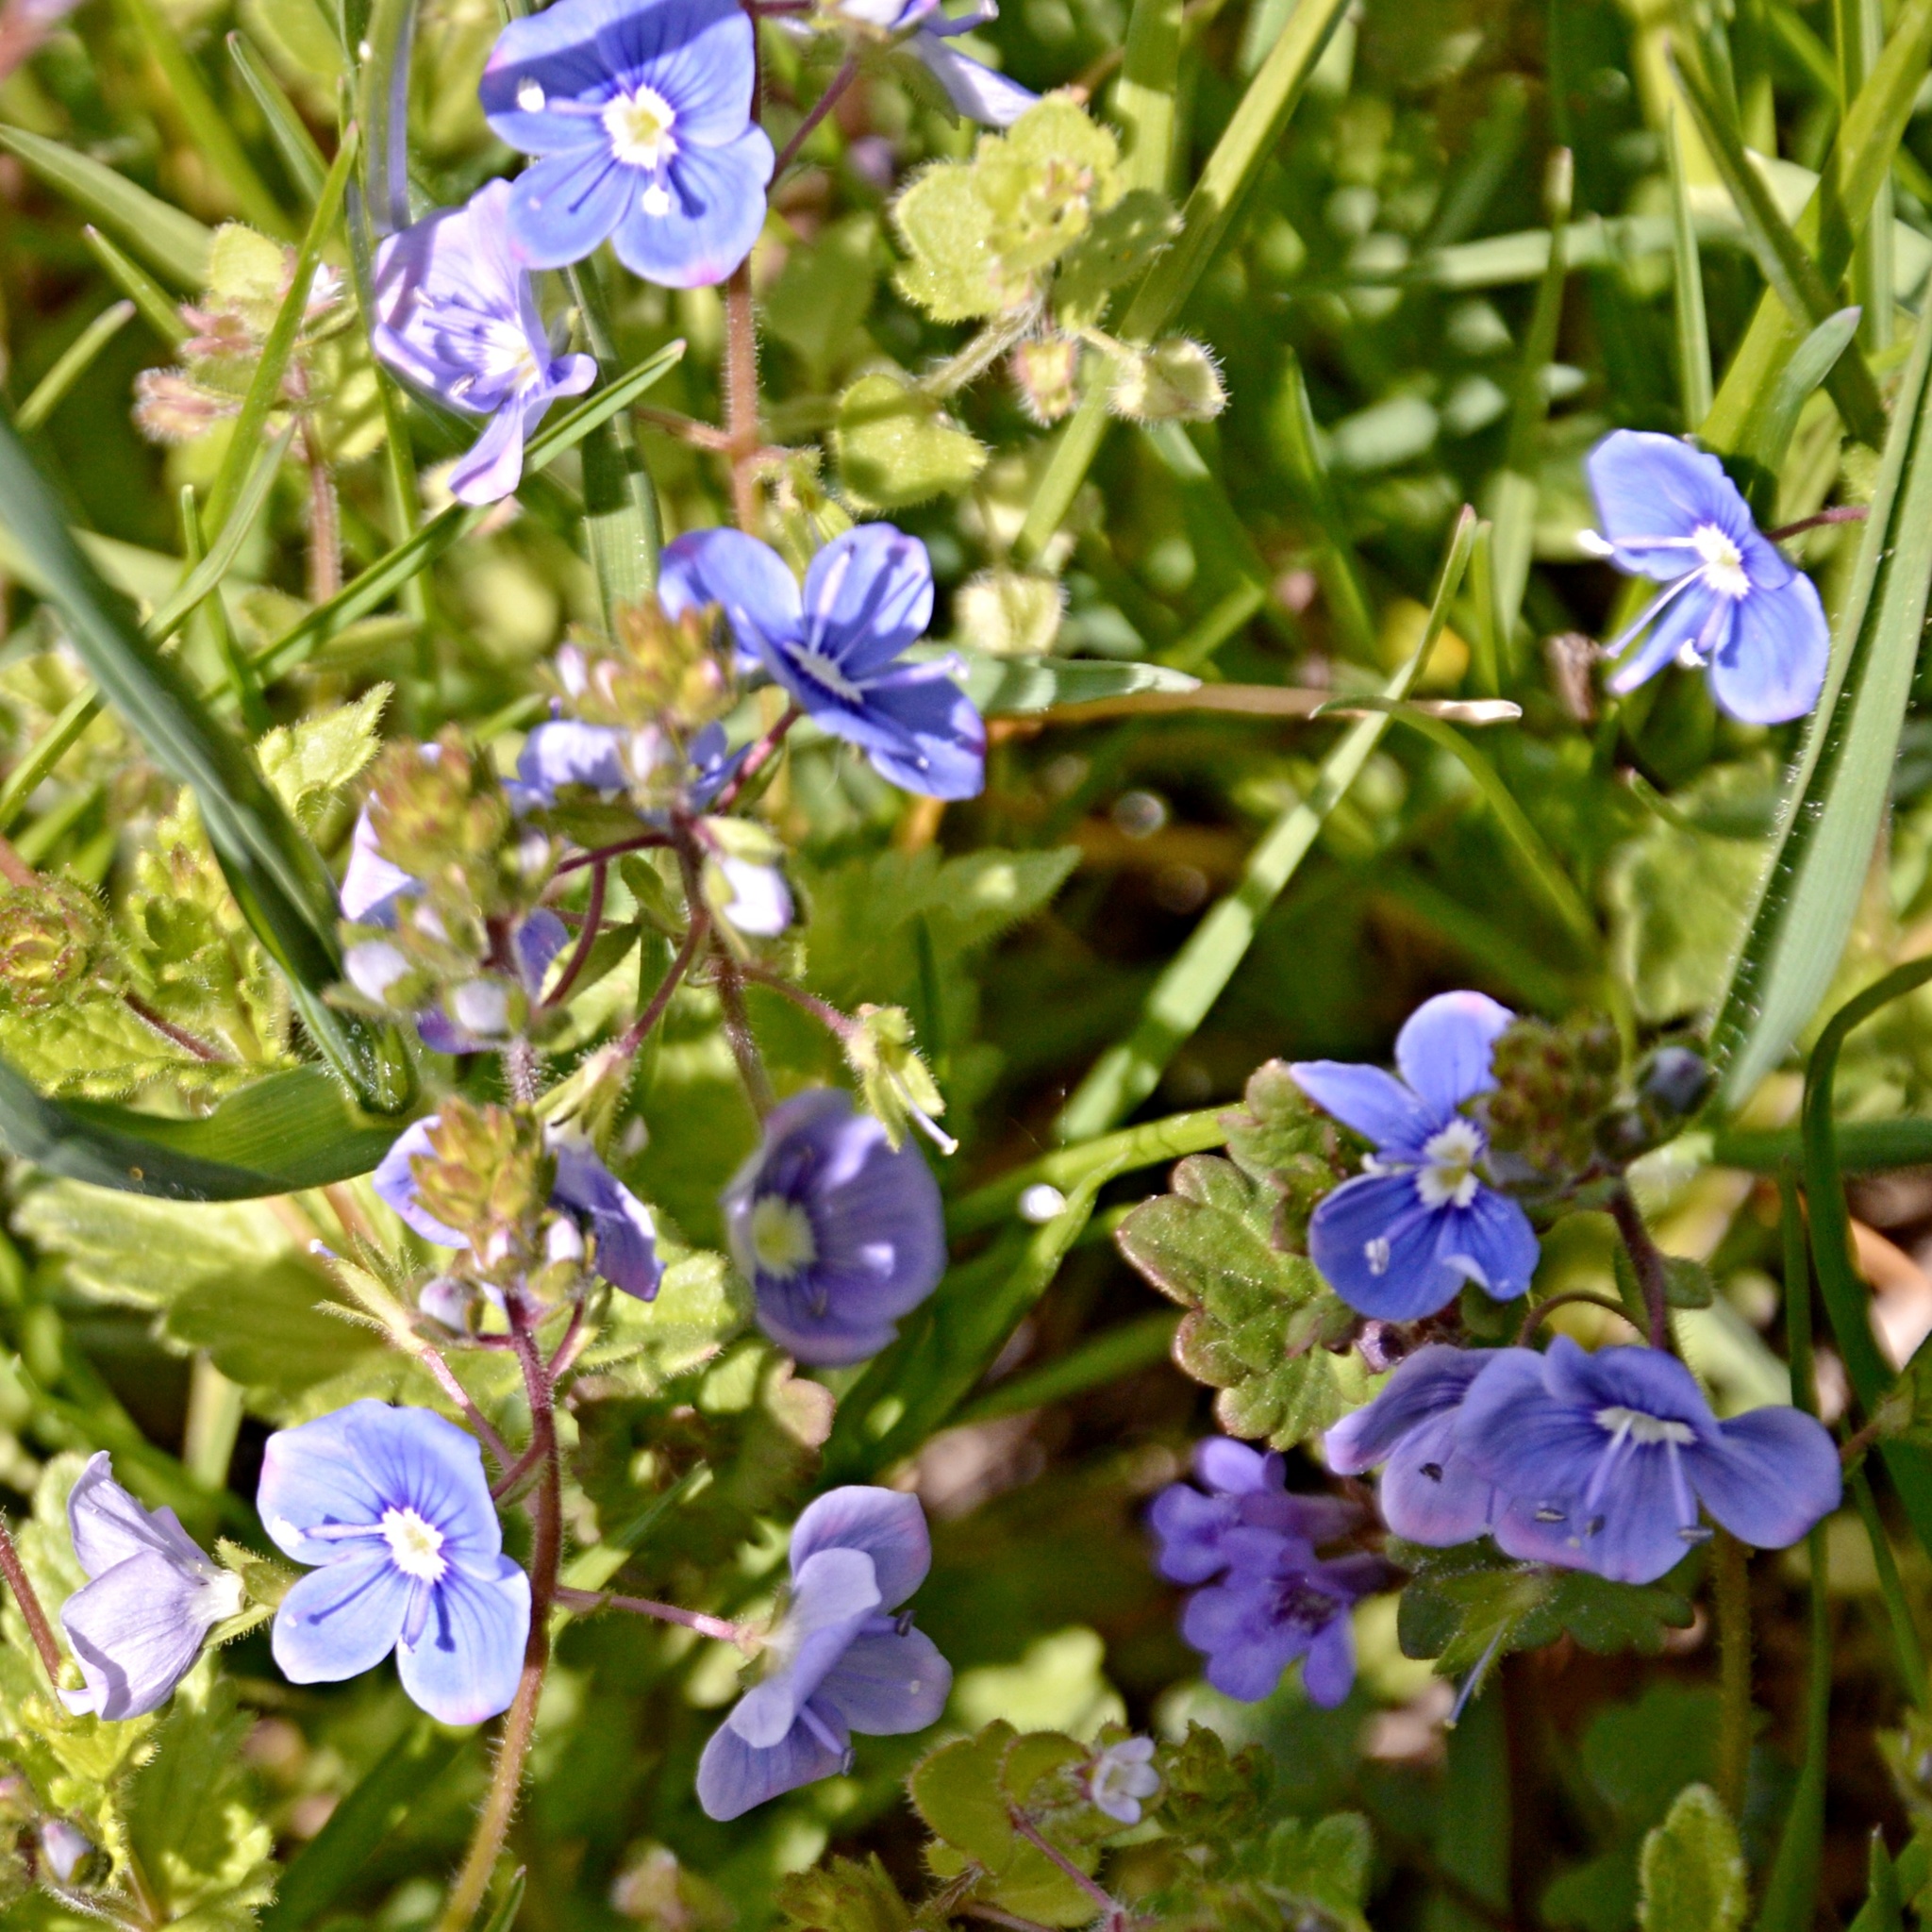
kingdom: Plantae
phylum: Tracheophyta
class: Magnoliopsida
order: Lamiales
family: Plantaginaceae
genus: Veronica
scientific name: Veronica chamaedrys
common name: Germander speedwell
